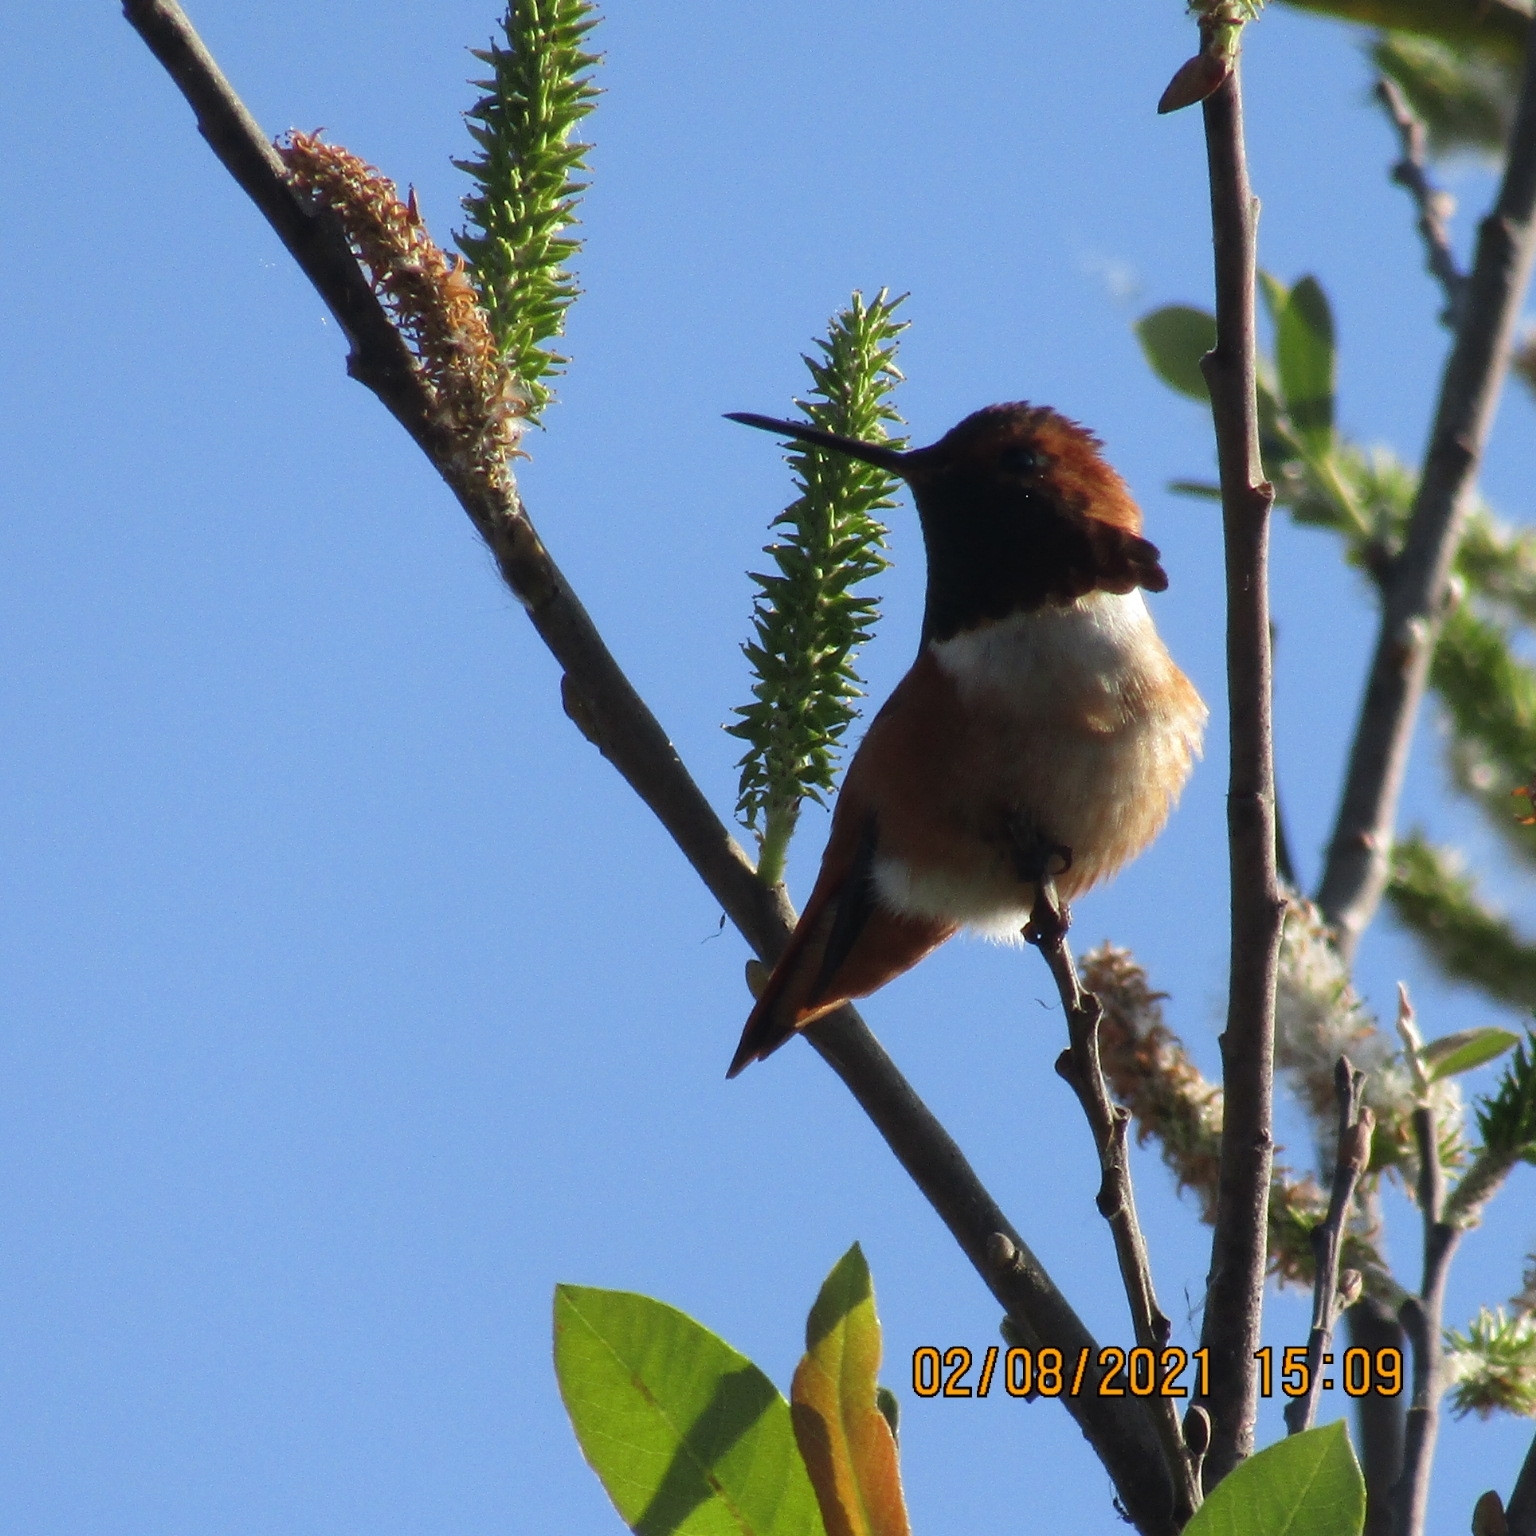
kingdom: Animalia
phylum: Chordata
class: Aves
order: Apodiformes
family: Trochilidae
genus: Selasphorus
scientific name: Selasphorus
